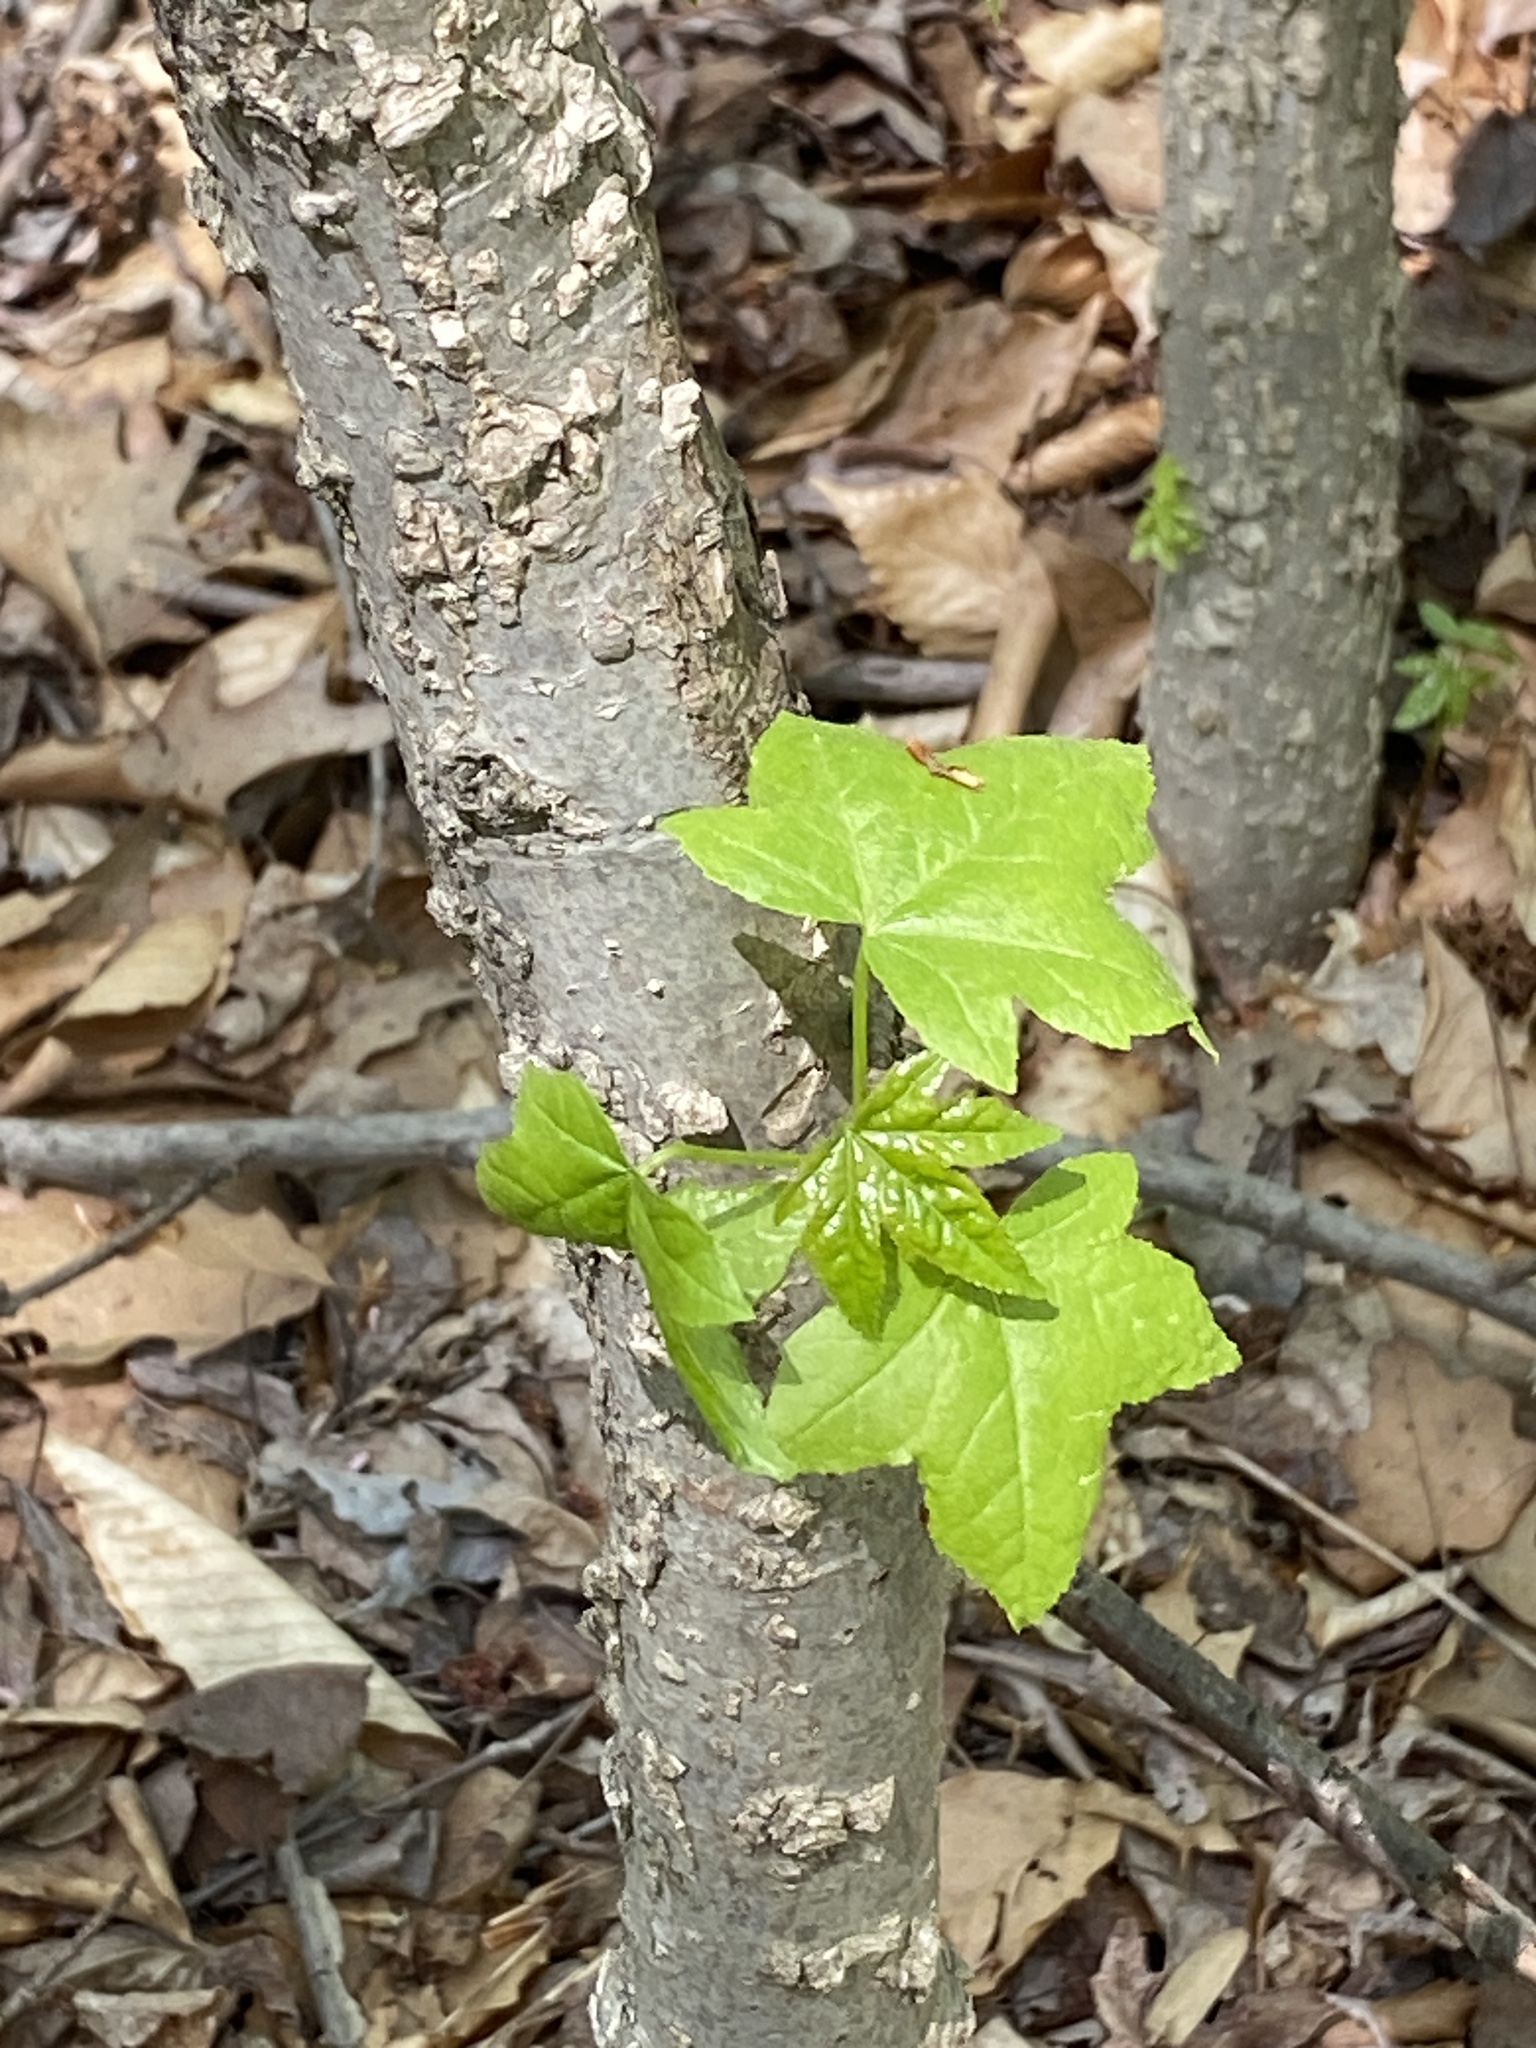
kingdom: Plantae
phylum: Tracheophyta
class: Magnoliopsida
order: Saxifragales
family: Altingiaceae
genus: Liquidambar
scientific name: Liquidambar styraciflua
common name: Sweet gum
